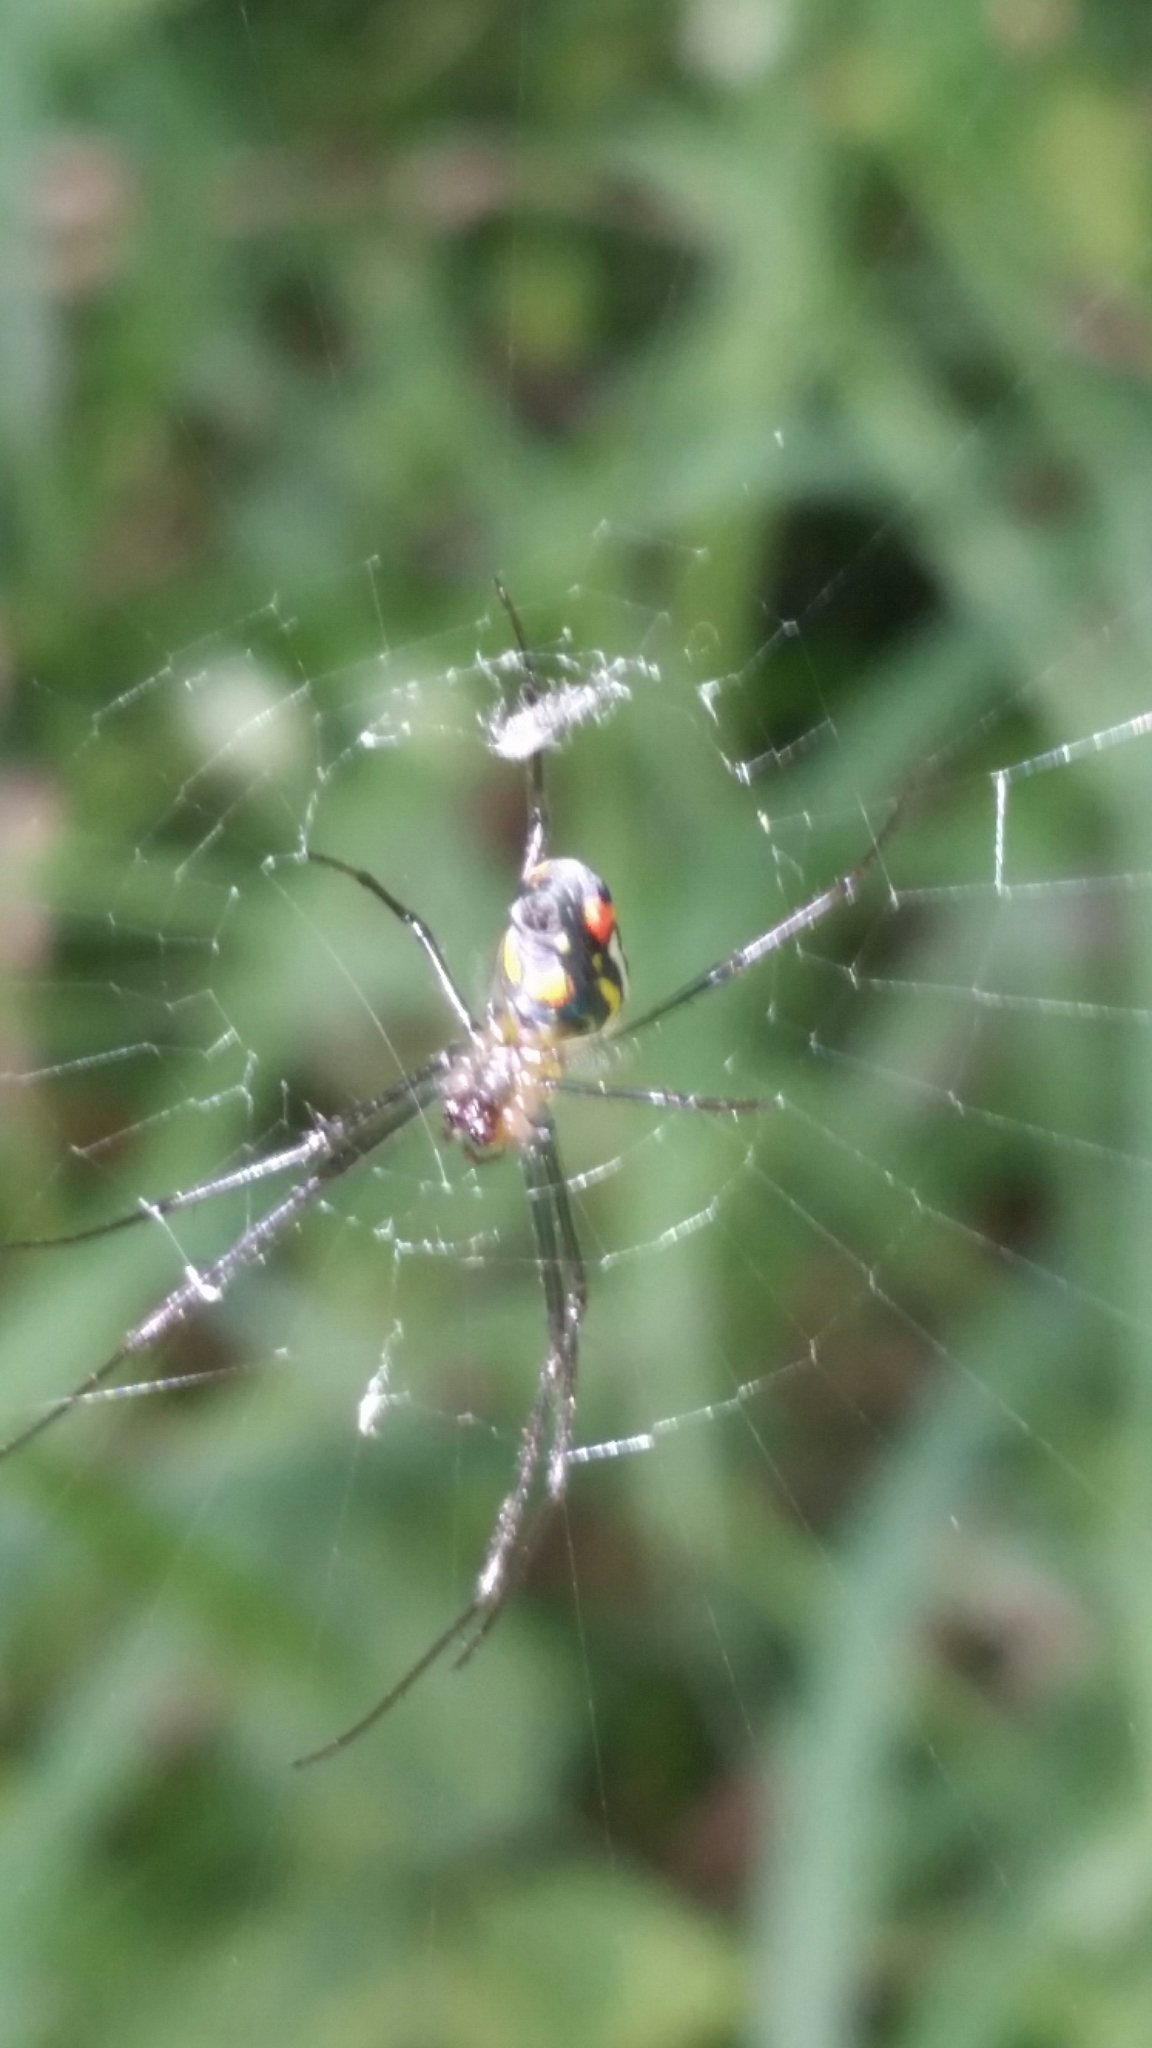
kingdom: Animalia
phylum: Arthropoda
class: Arachnida
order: Araneae
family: Tetragnathidae
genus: Leucauge
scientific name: Leucauge argyrobapta
